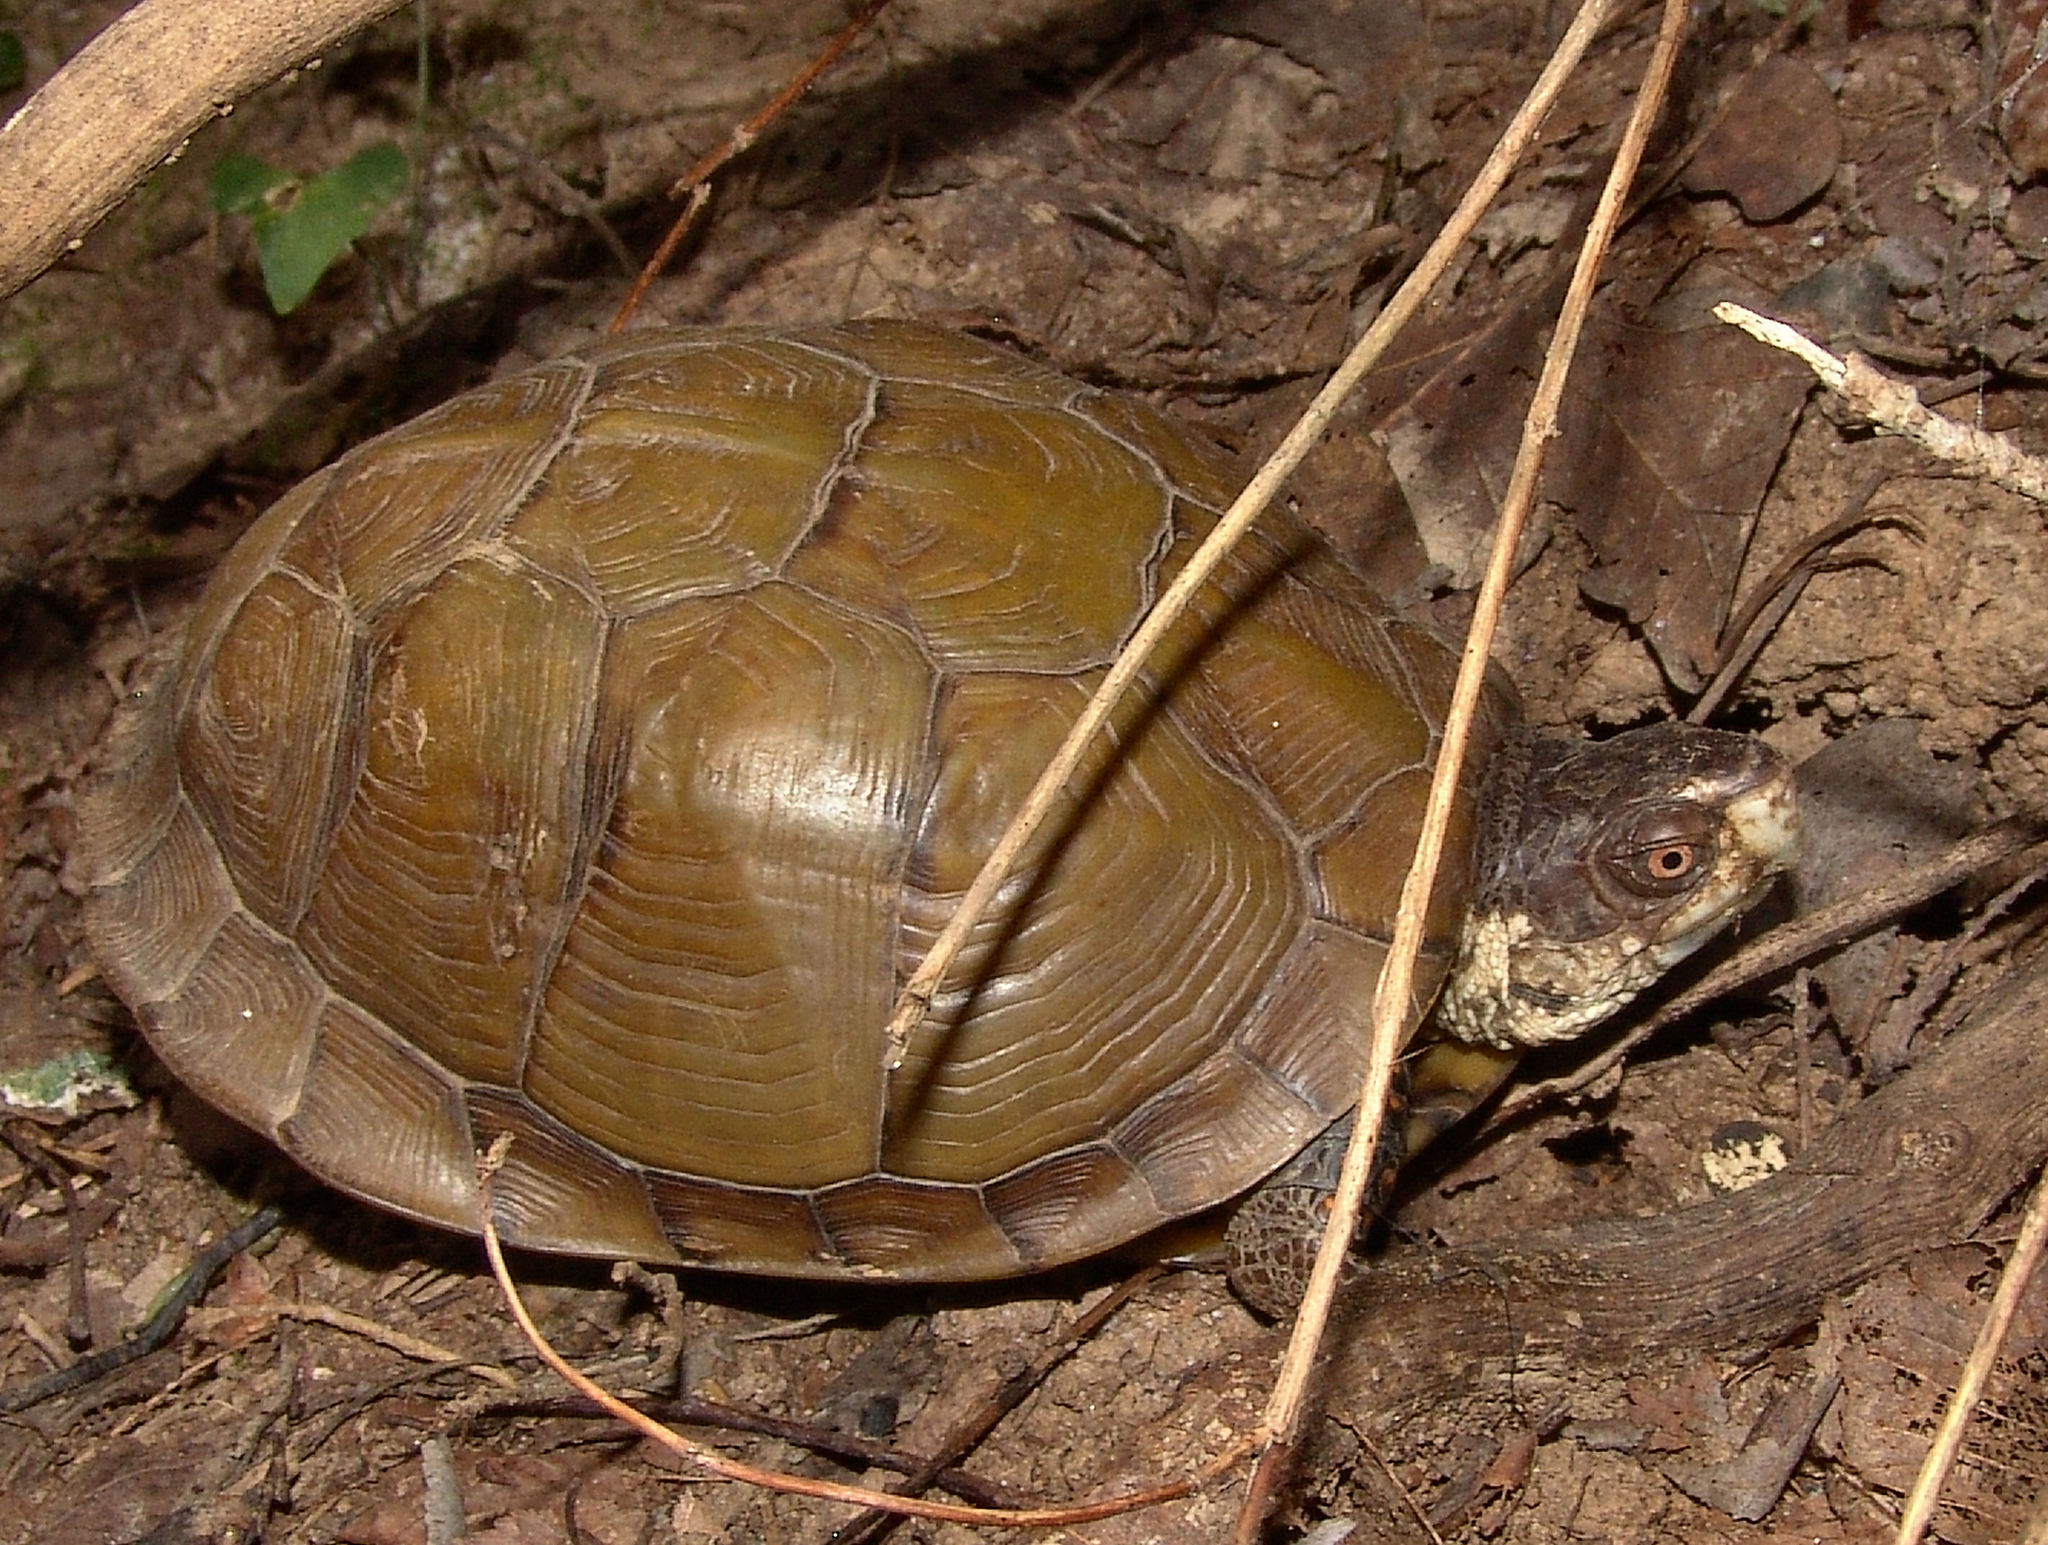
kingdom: Animalia
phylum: Chordata
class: Testudines
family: Emydidae
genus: Terrapene
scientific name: Terrapene carolina
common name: Common box turtle
